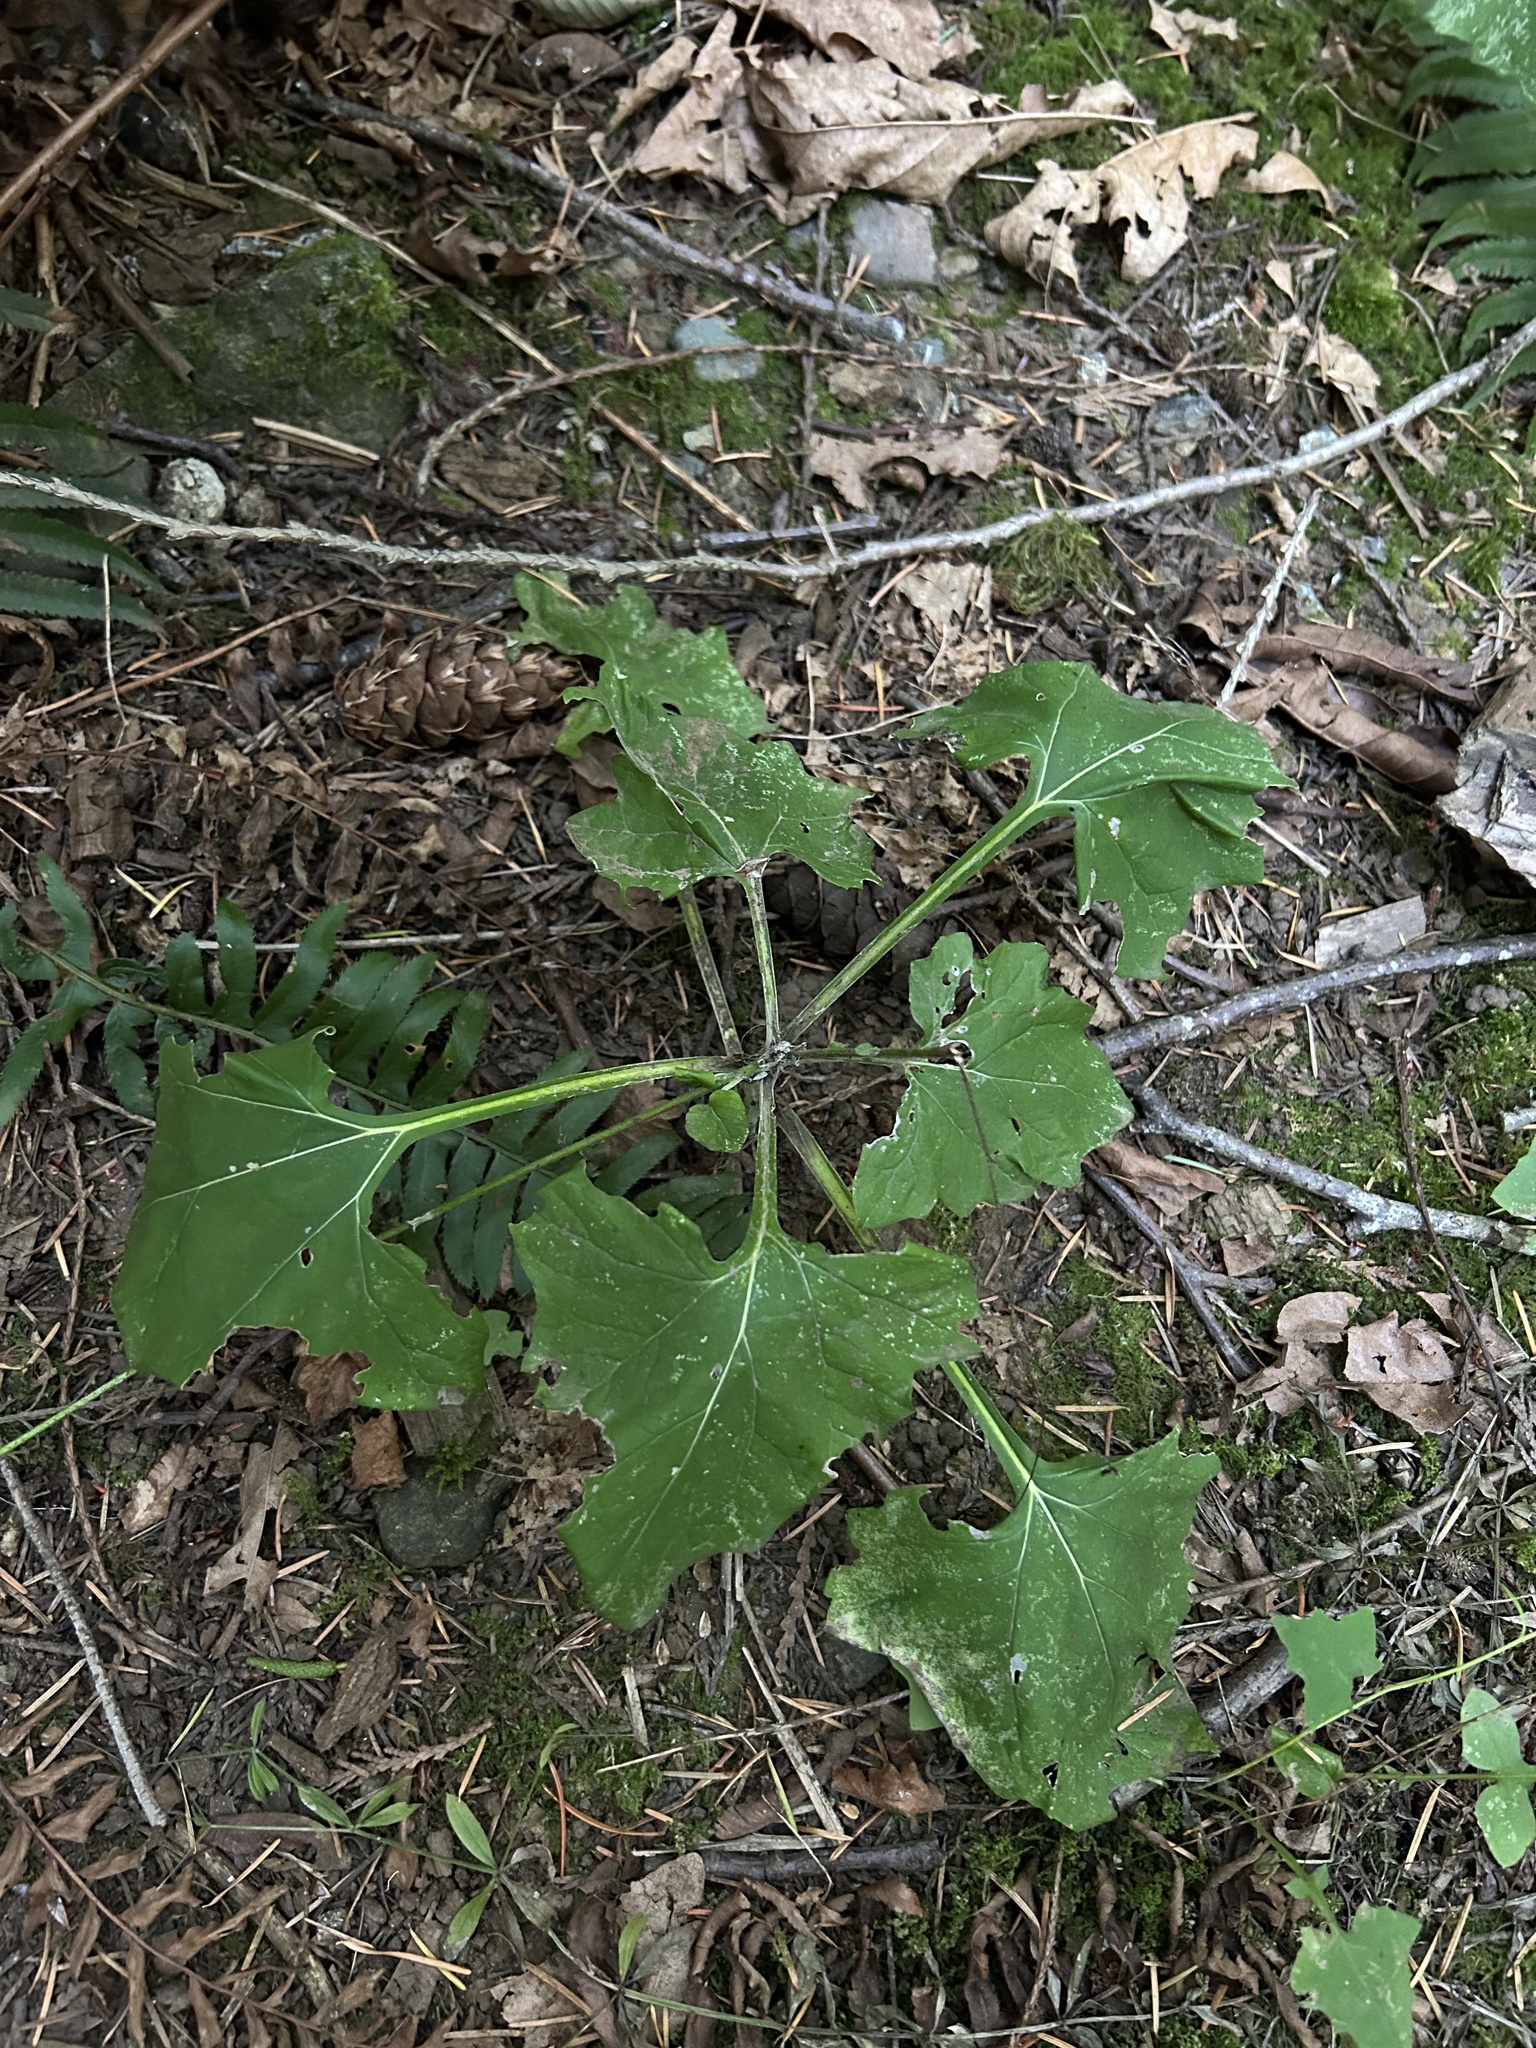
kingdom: Plantae
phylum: Tracheophyta
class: Magnoliopsida
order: Asterales
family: Asteraceae
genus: Adenocaulon
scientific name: Adenocaulon bicolor
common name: Trailplant
